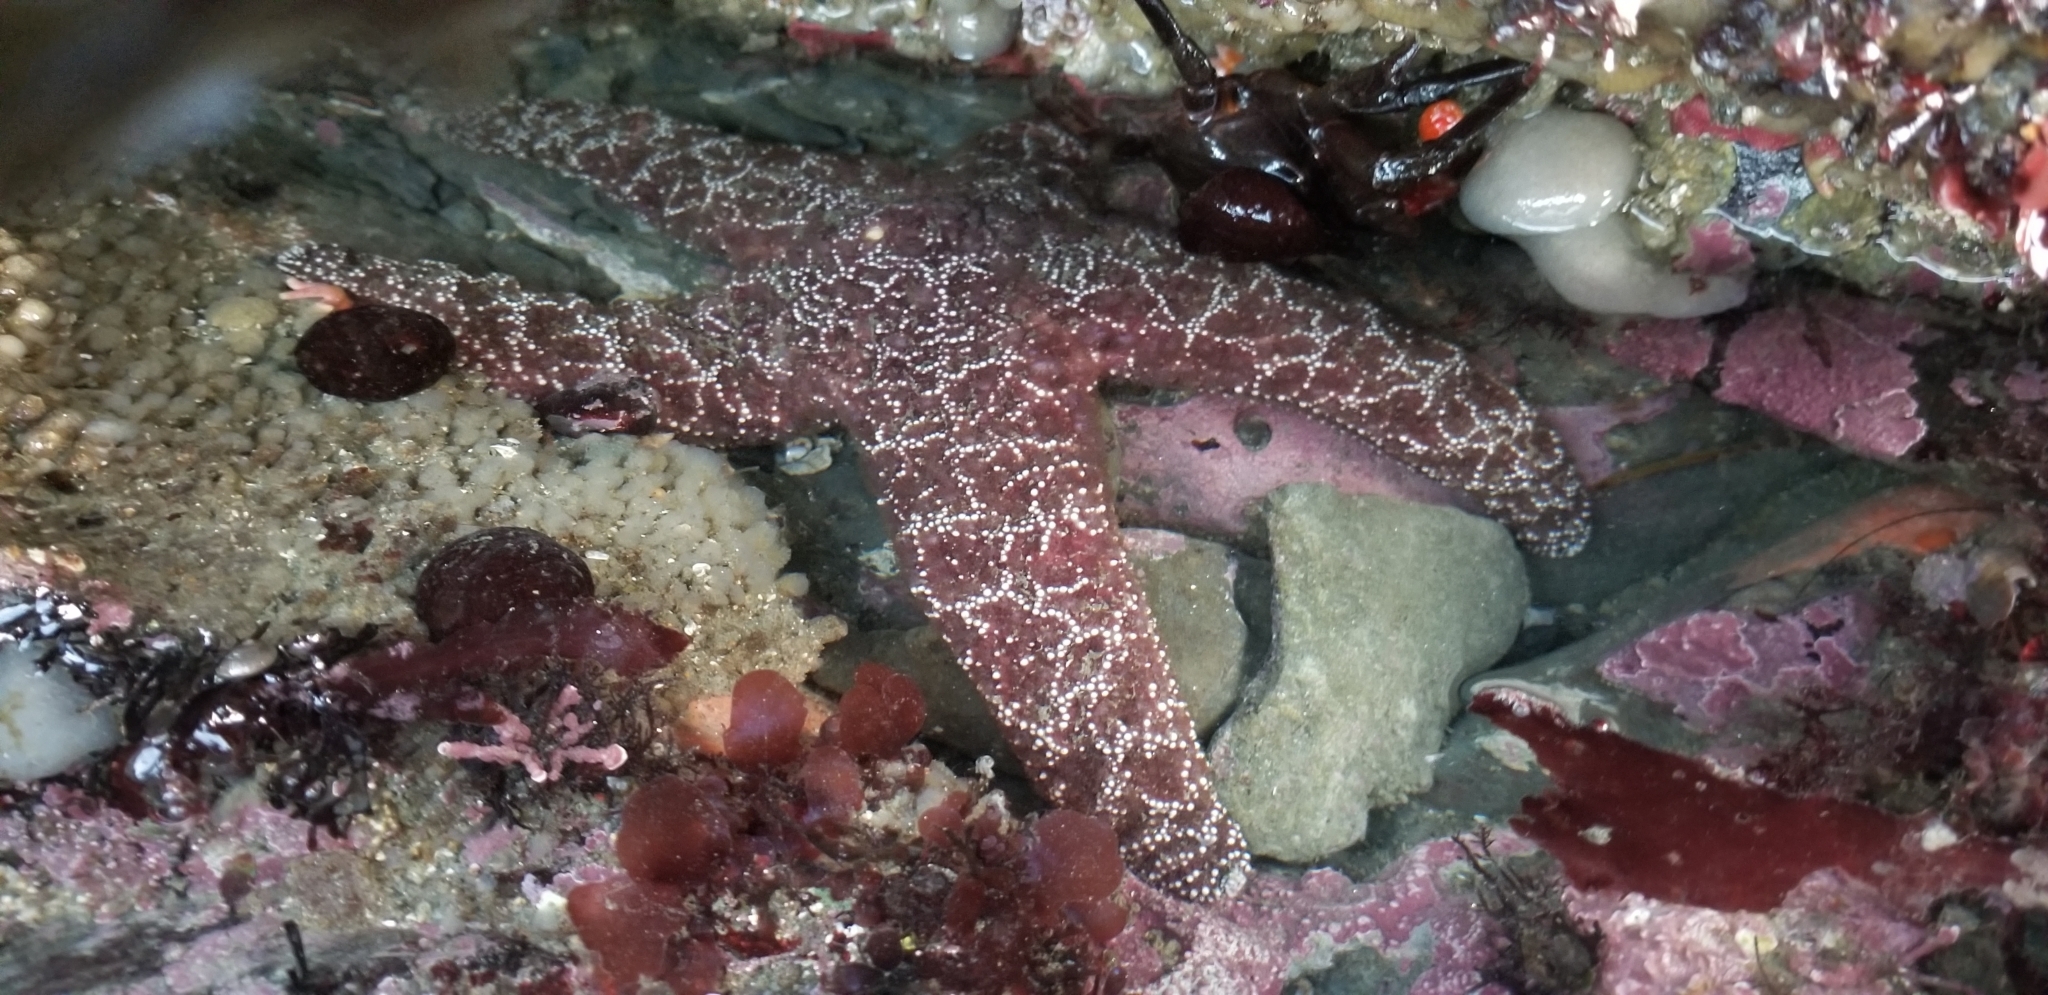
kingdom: Animalia
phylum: Echinodermata
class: Asteroidea
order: Forcipulatida
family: Asteriidae
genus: Pisaster
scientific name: Pisaster ochraceus
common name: Ochre stars
